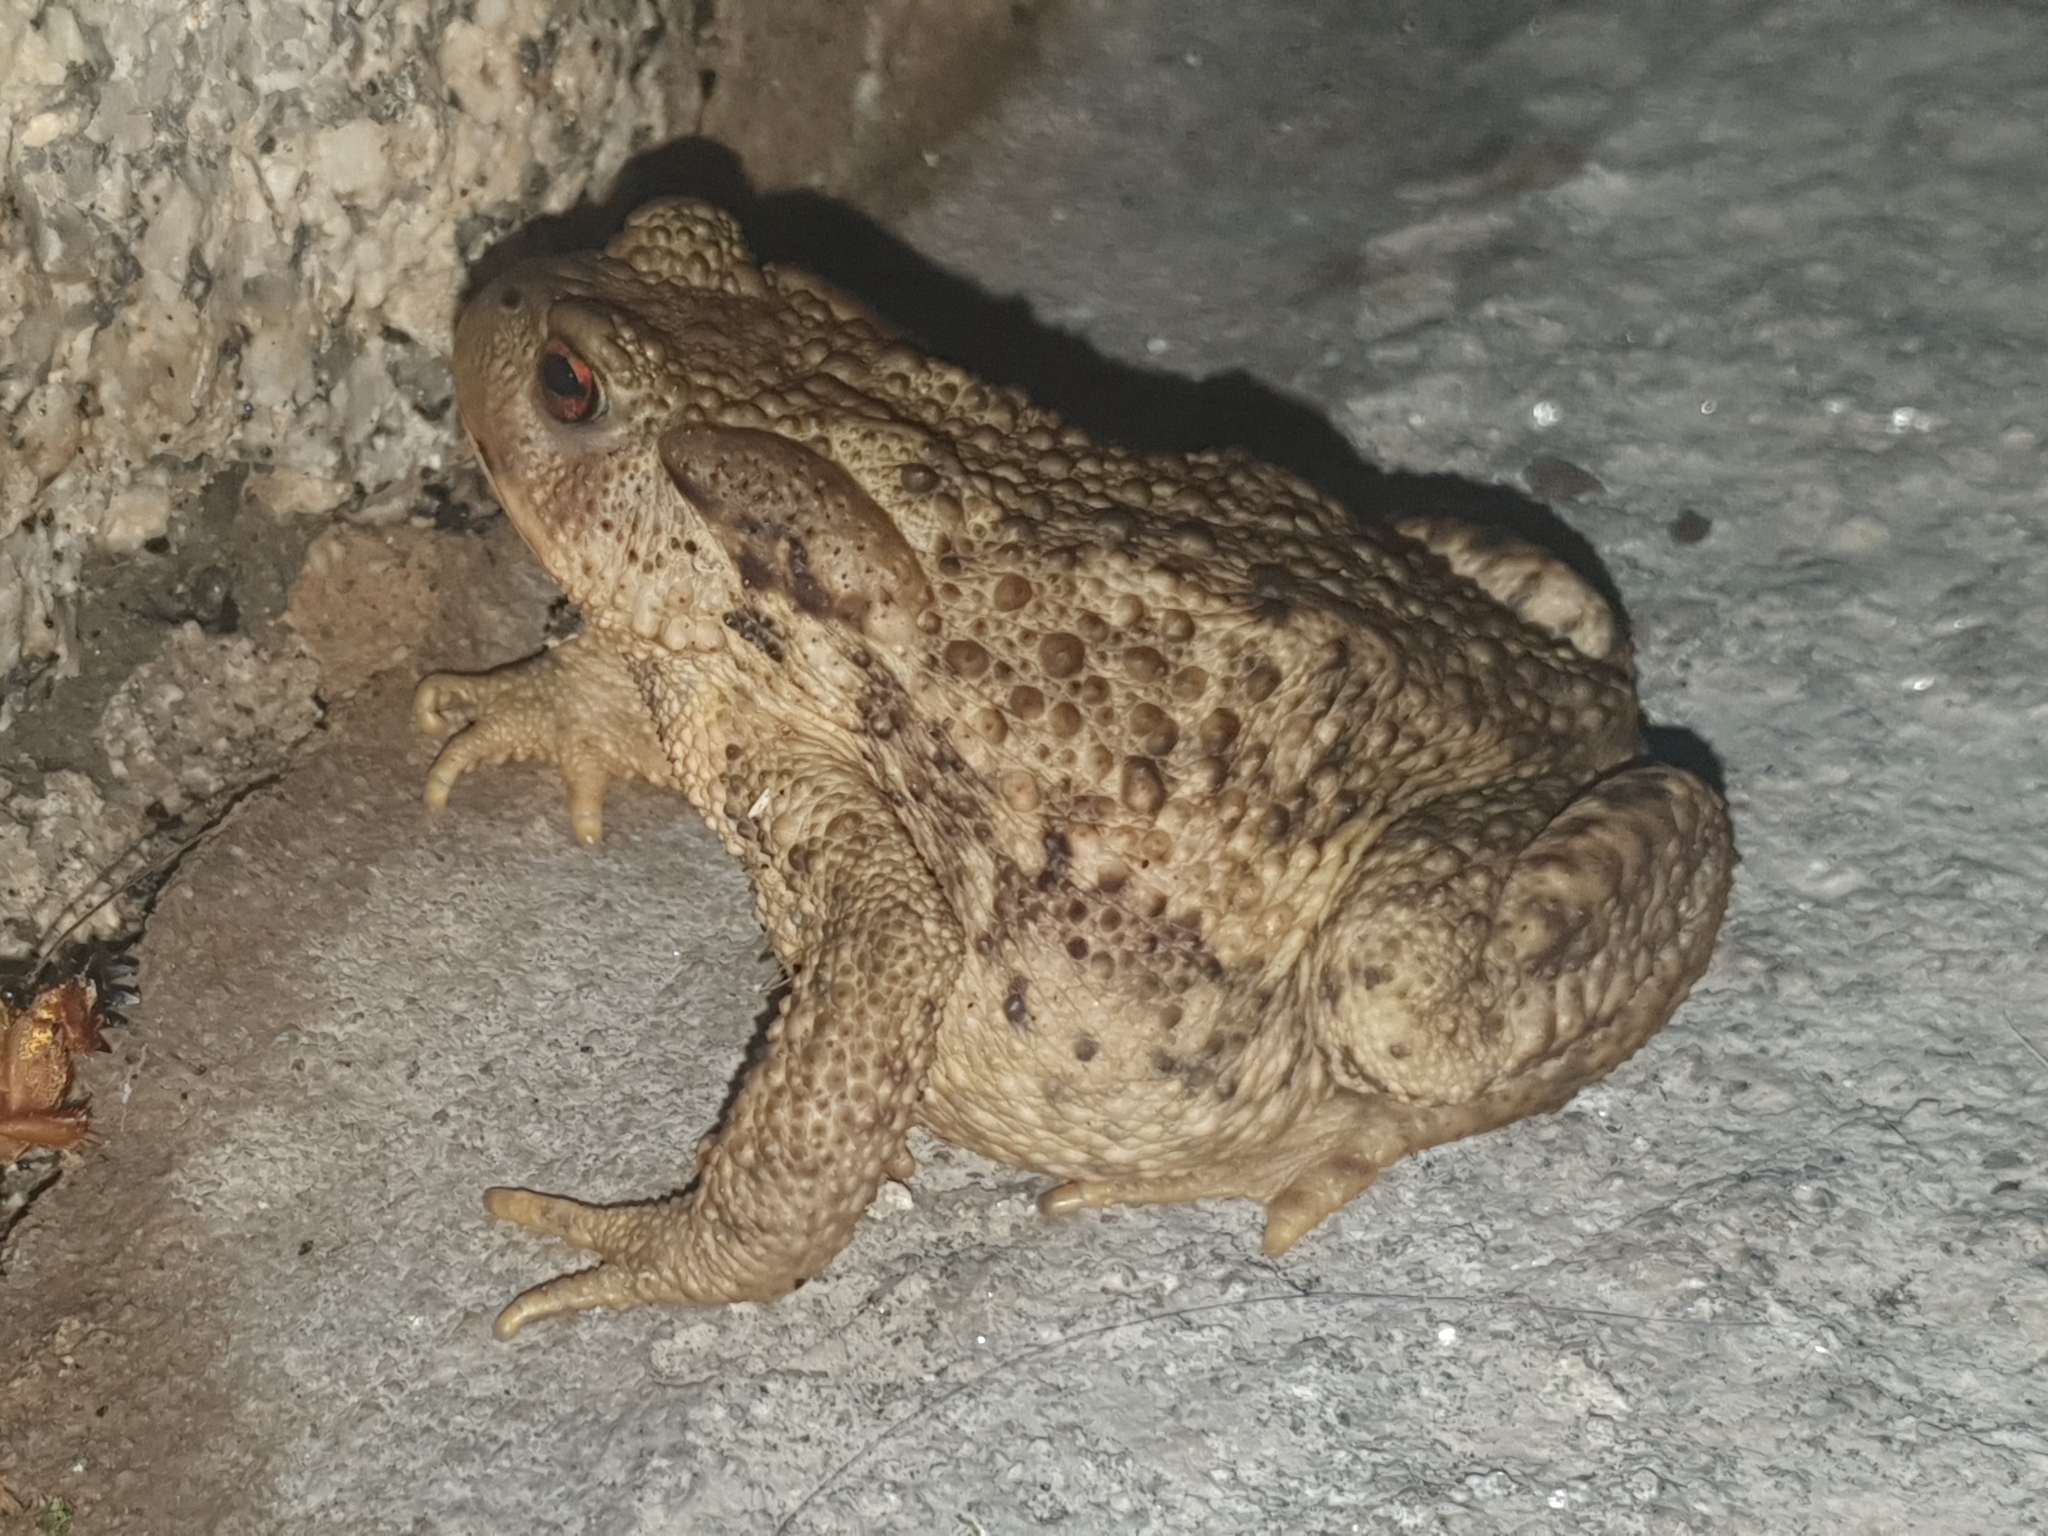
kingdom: Animalia
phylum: Chordata
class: Amphibia
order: Anura
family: Bufonidae
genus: Bufo
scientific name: Bufo spinosus
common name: Western common toad
